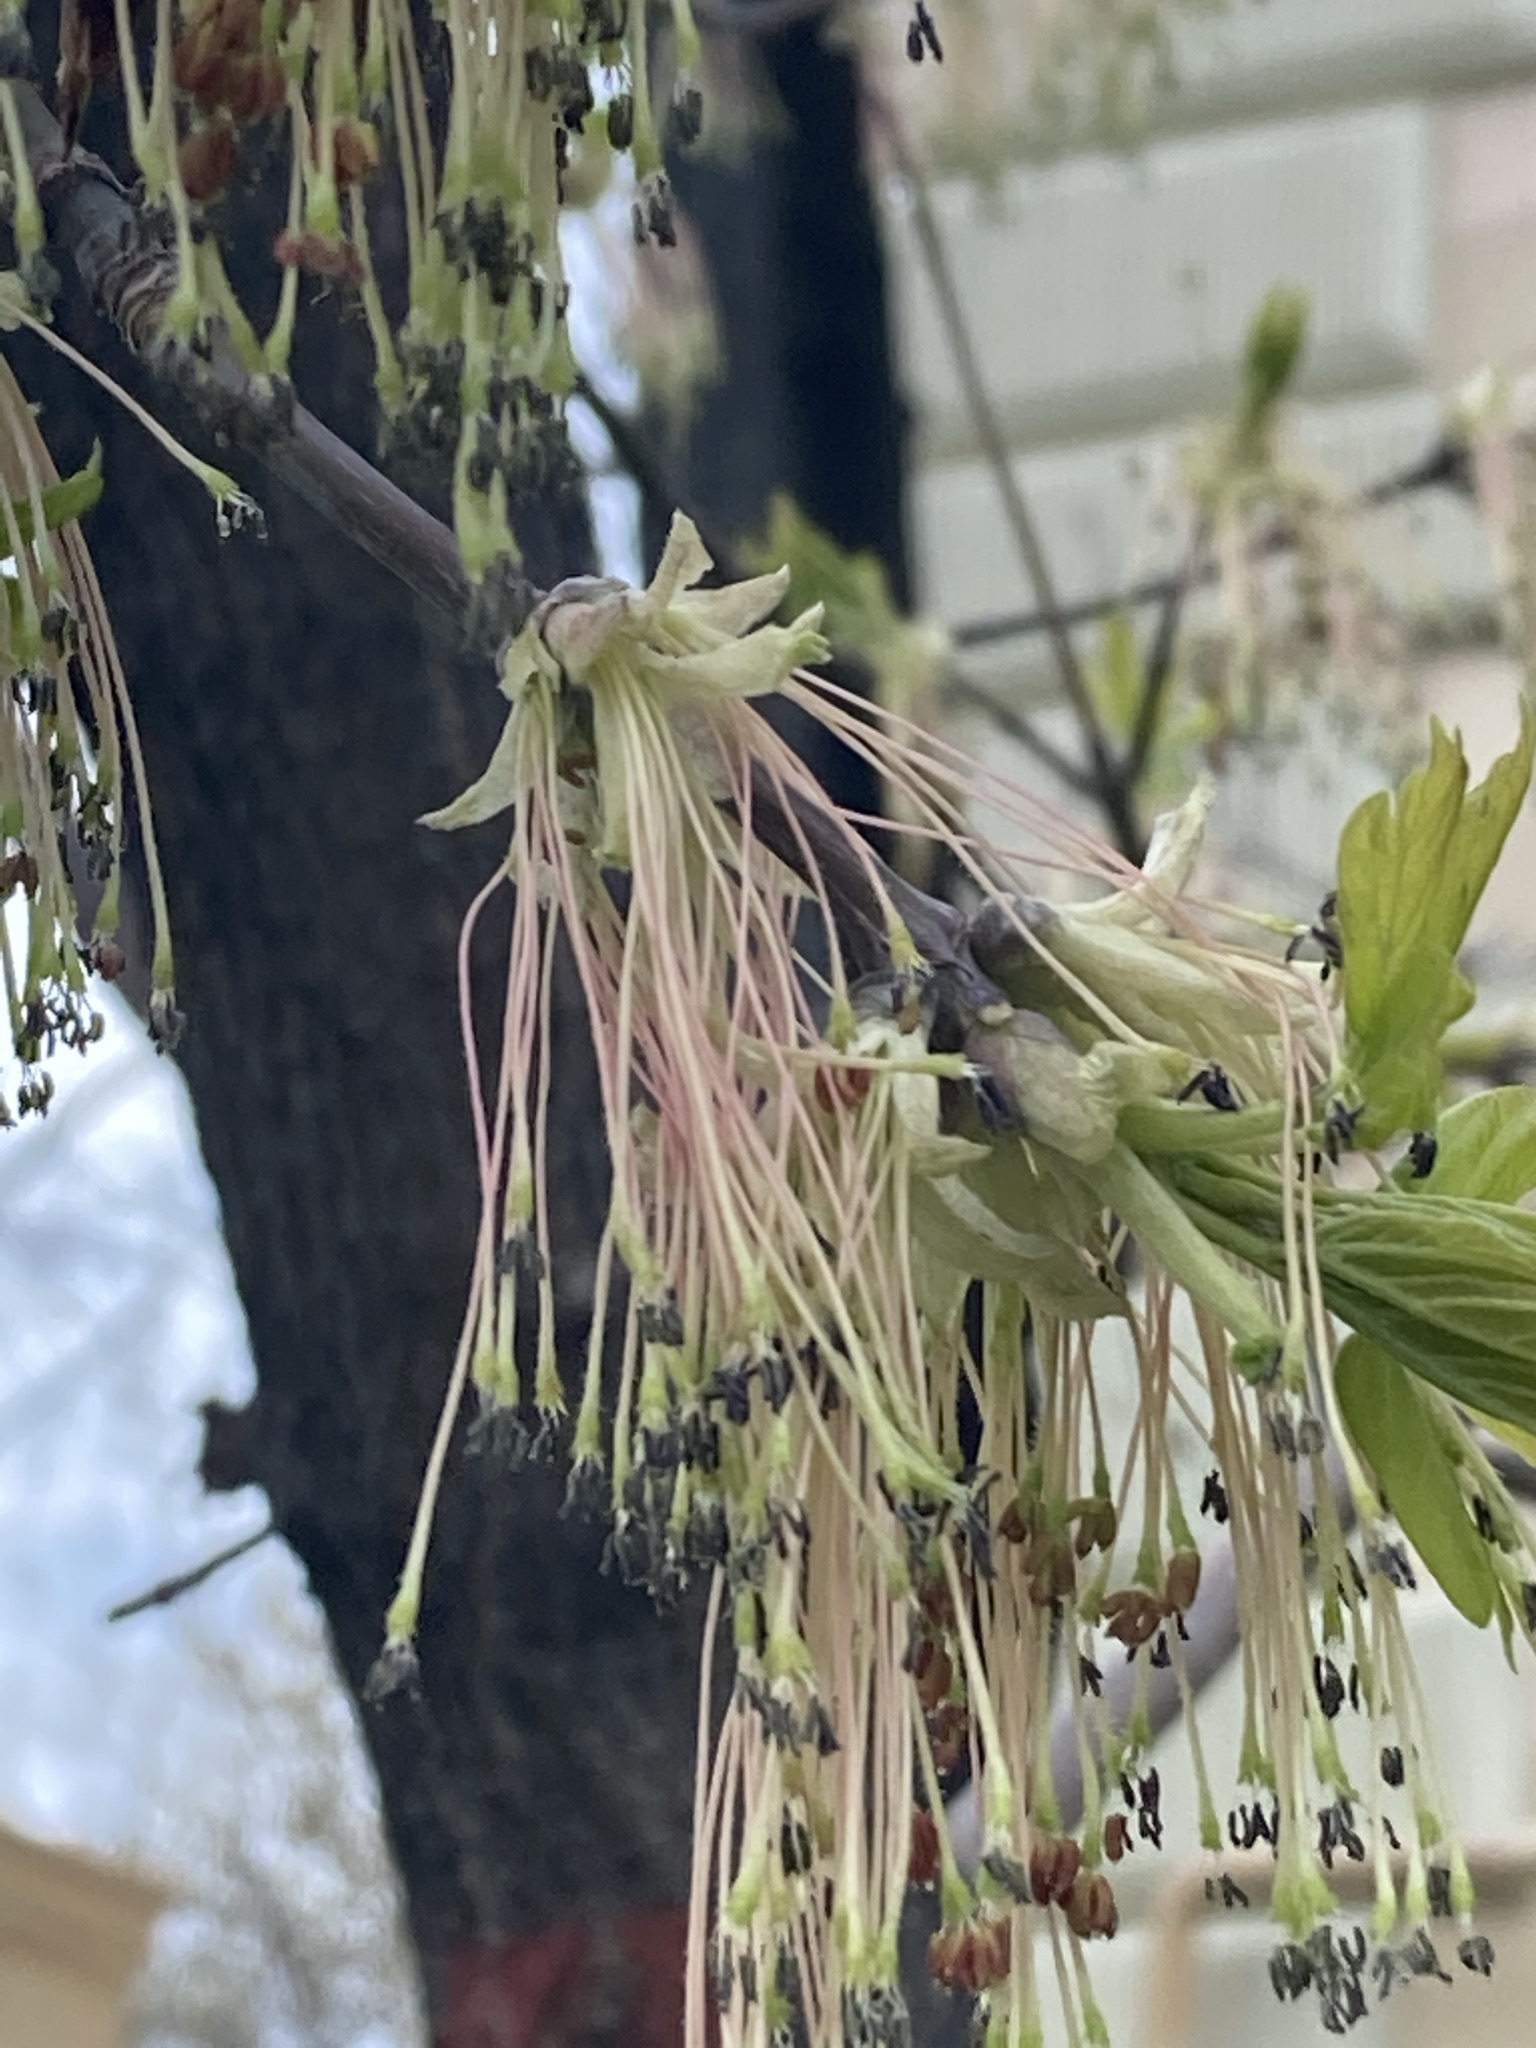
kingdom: Plantae
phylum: Tracheophyta
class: Magnoliopsida
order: Sapindales
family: Sapindaceae
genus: Acer
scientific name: Acer negundo
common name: Ashleaf maple
